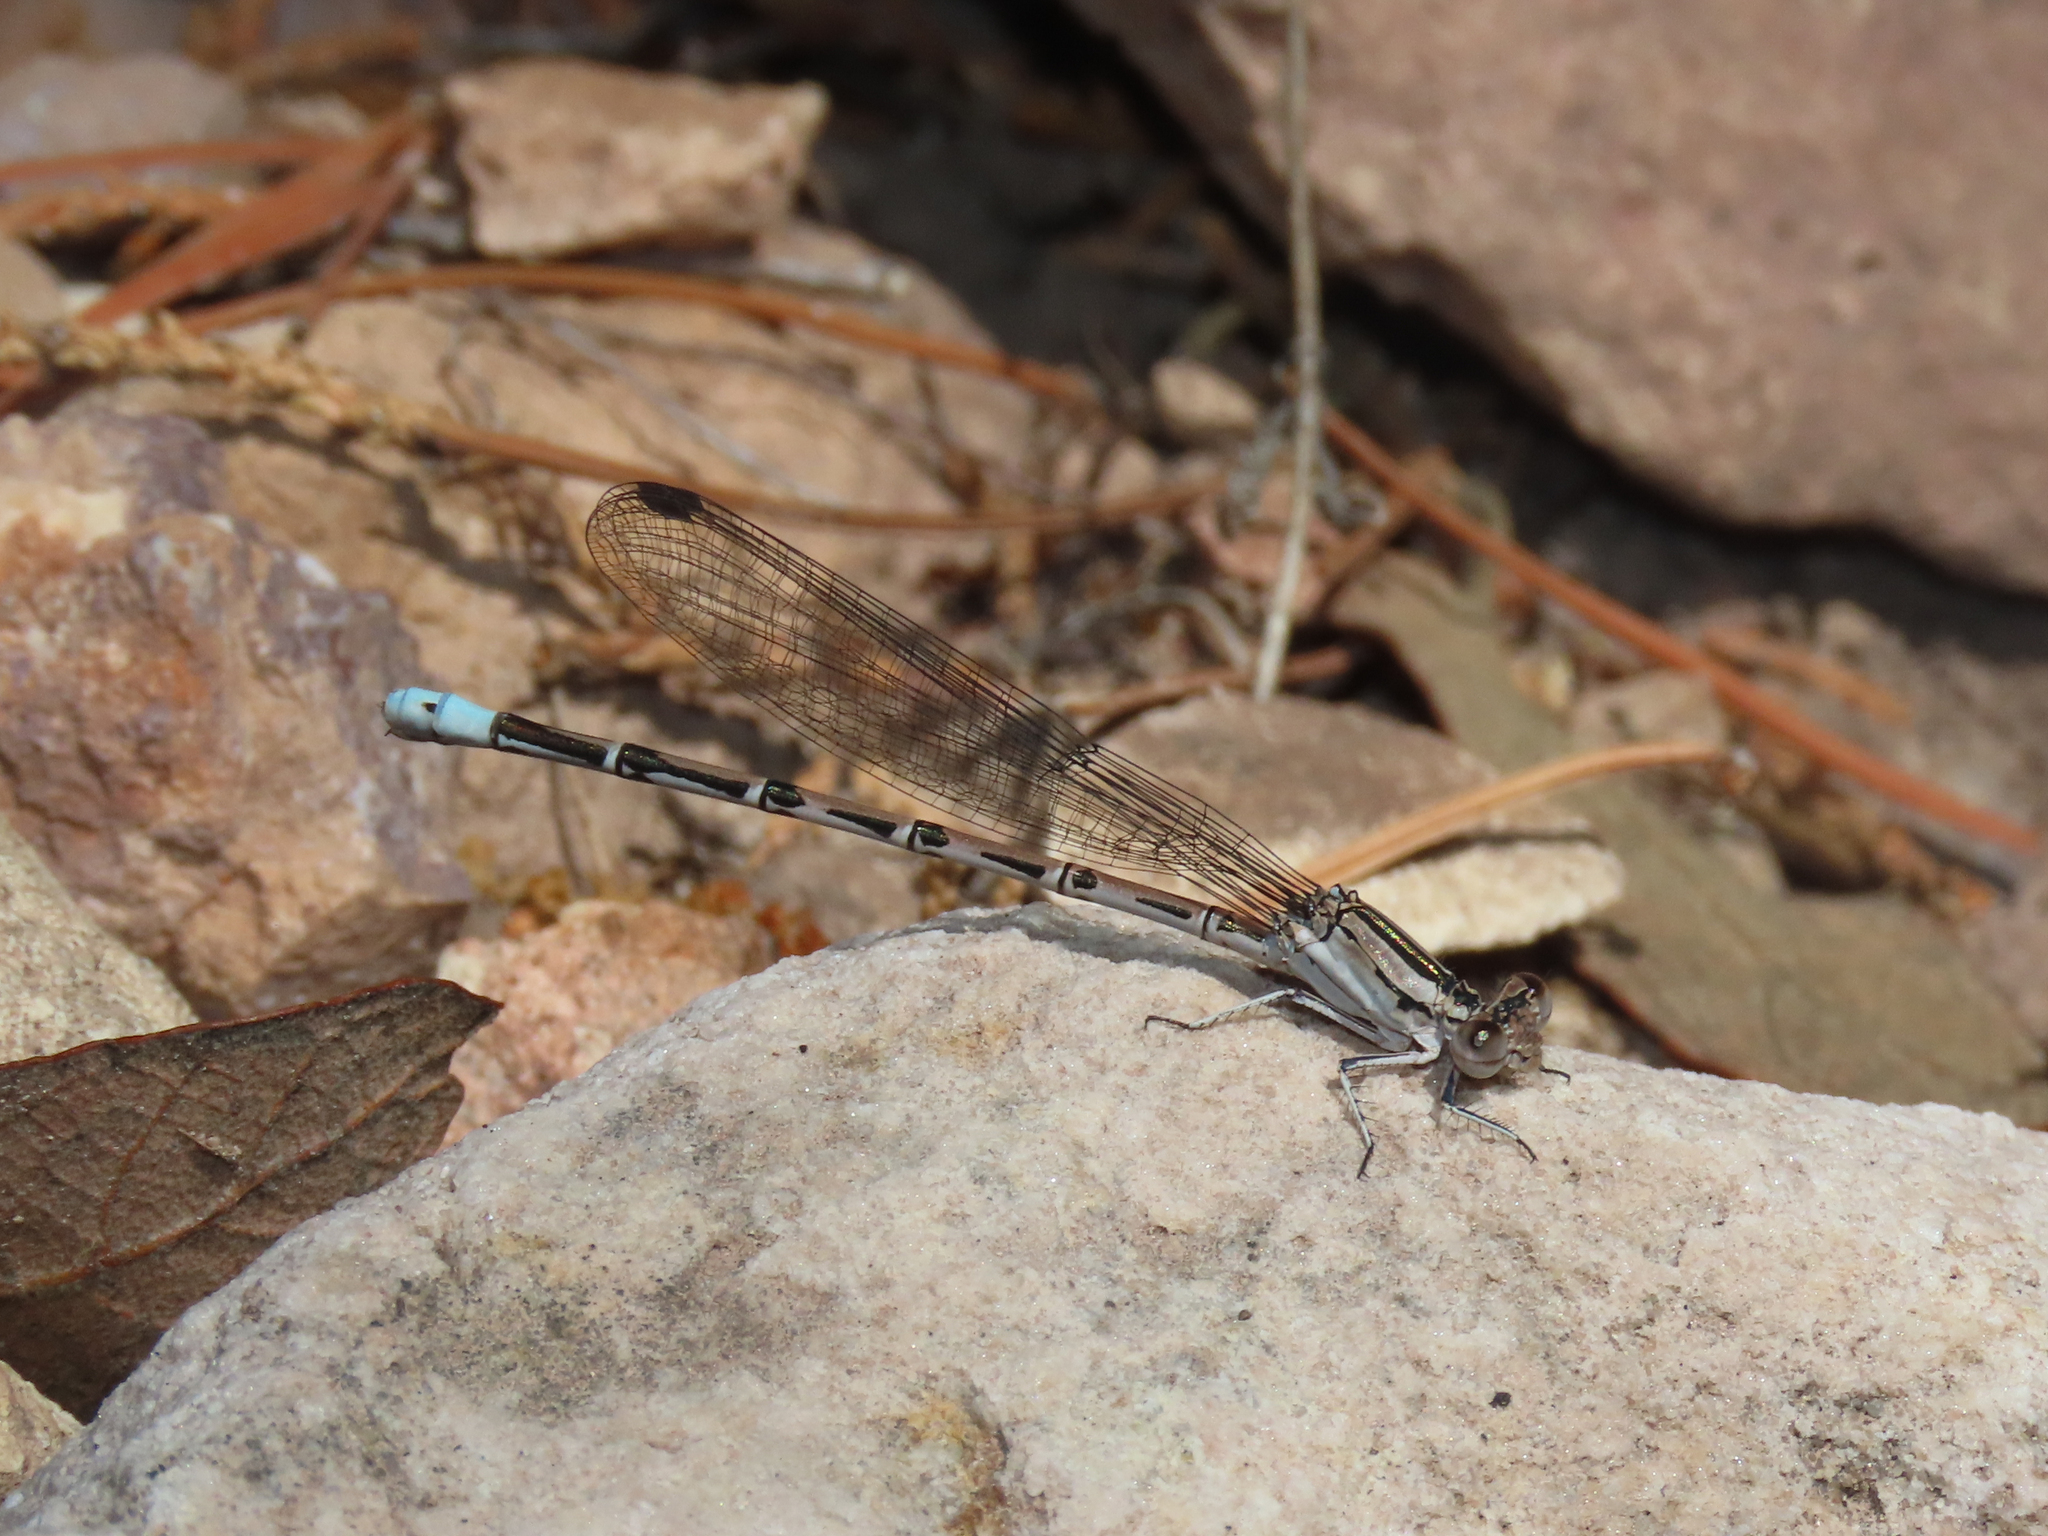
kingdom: Animalia
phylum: Arthropoda
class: Insecta
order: Odonata
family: Coenagrionidae
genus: Argia
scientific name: Argia funebris
